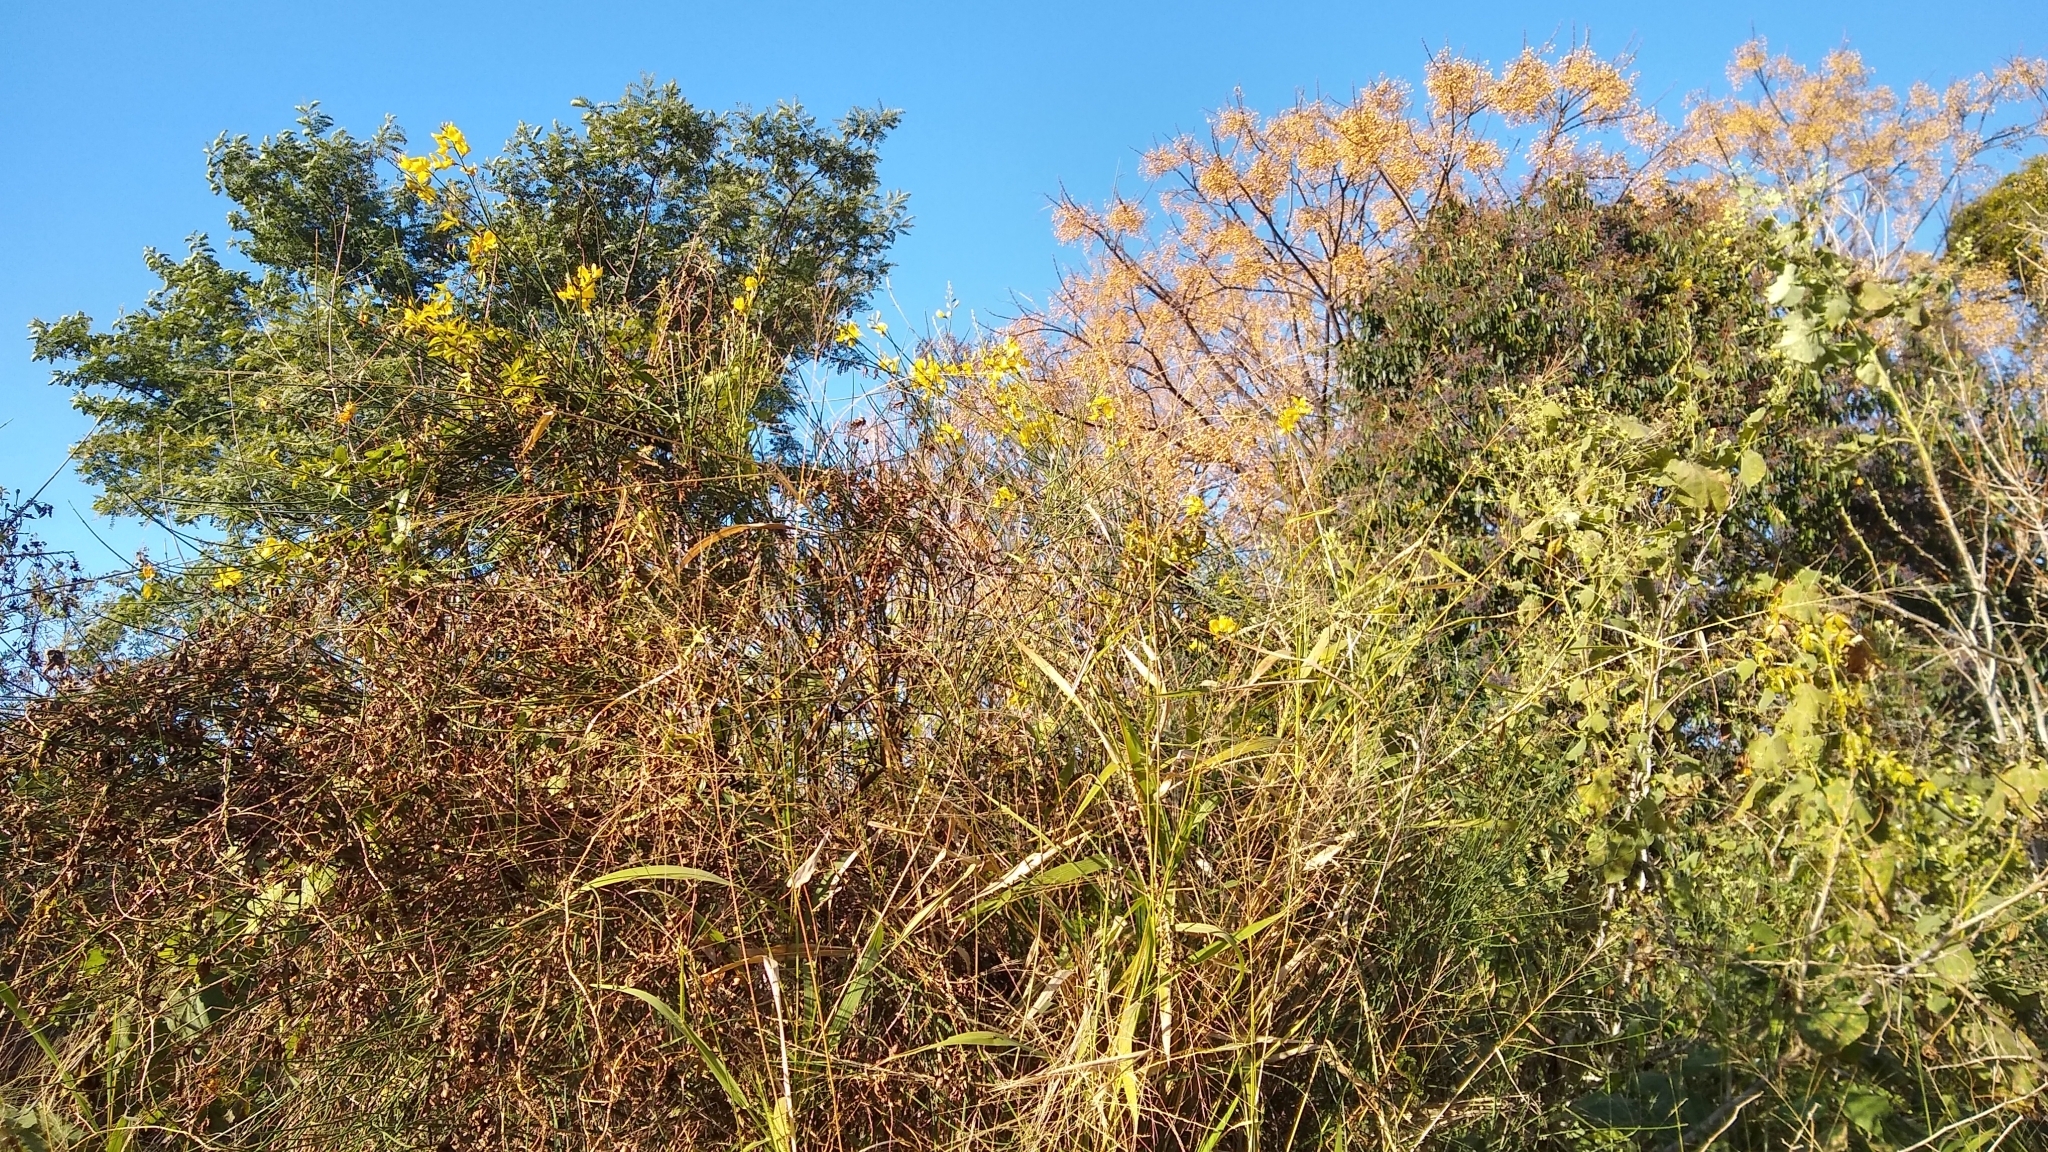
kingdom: Plantae
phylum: Tracheophyta
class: Magnoliopsida
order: Fabales
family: Fabaceae
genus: Spartium
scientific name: Spartium junceum
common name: Spanish broom
